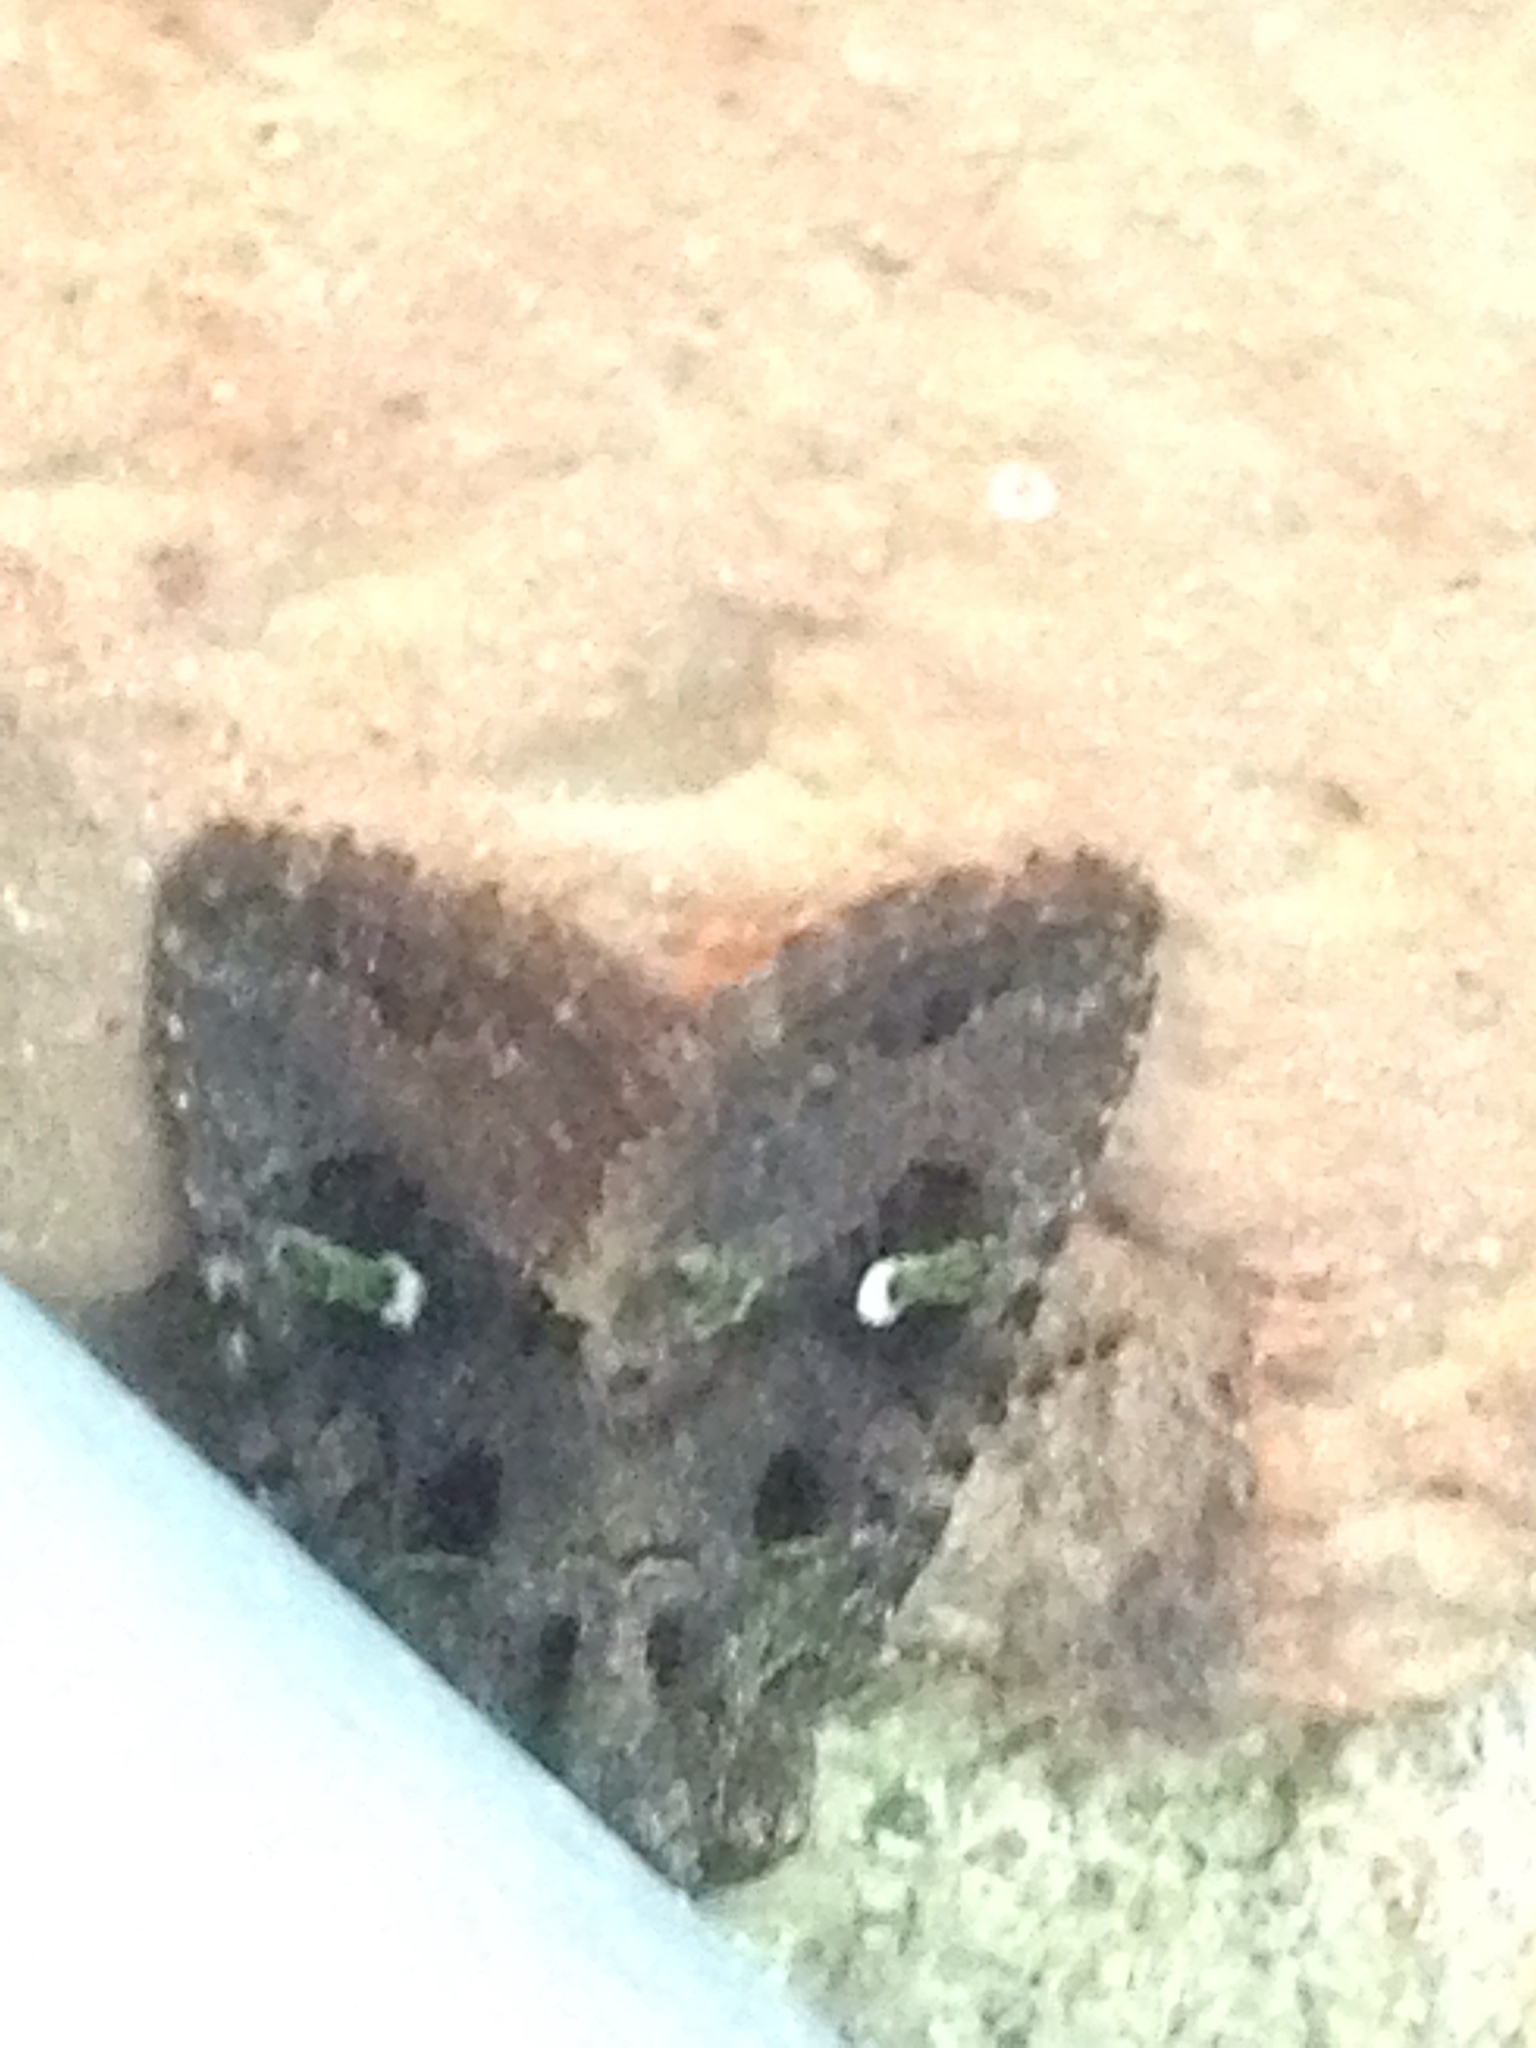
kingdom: Animalia
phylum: Arthropoda
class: Insecta
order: Lepidoptera
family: Noctuidae
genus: Lacinipolia
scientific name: Lacinipolia renigera
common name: Kidney-spotted minor
